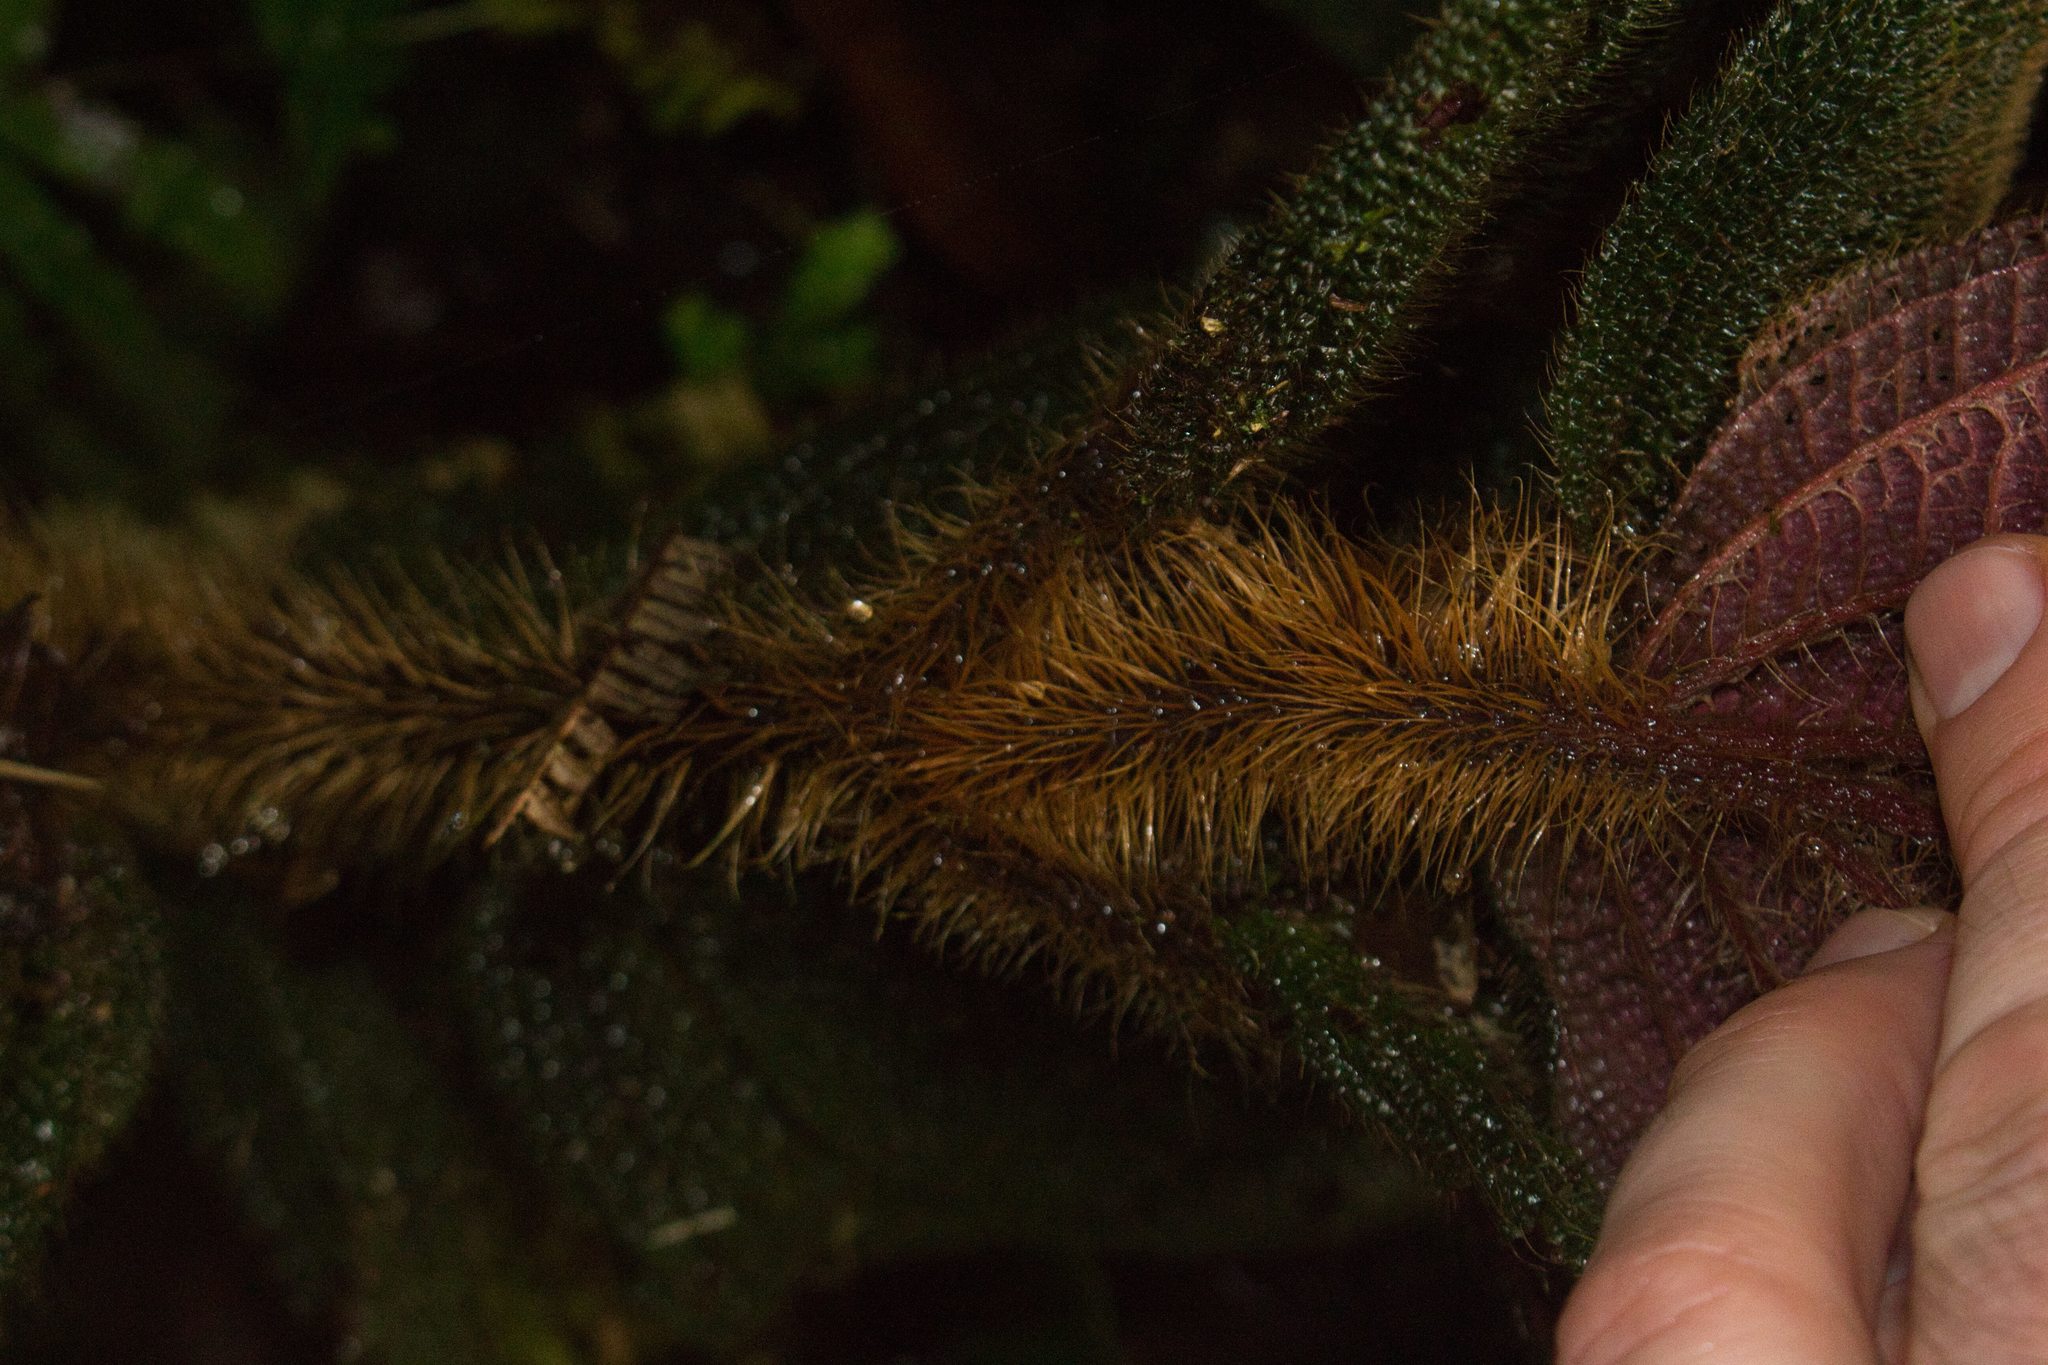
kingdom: Plantae
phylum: Tracheophyta
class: Magnoliopsida
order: Myrtales
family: Melastomataceae
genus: Miconia
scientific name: Miconia reflexa
